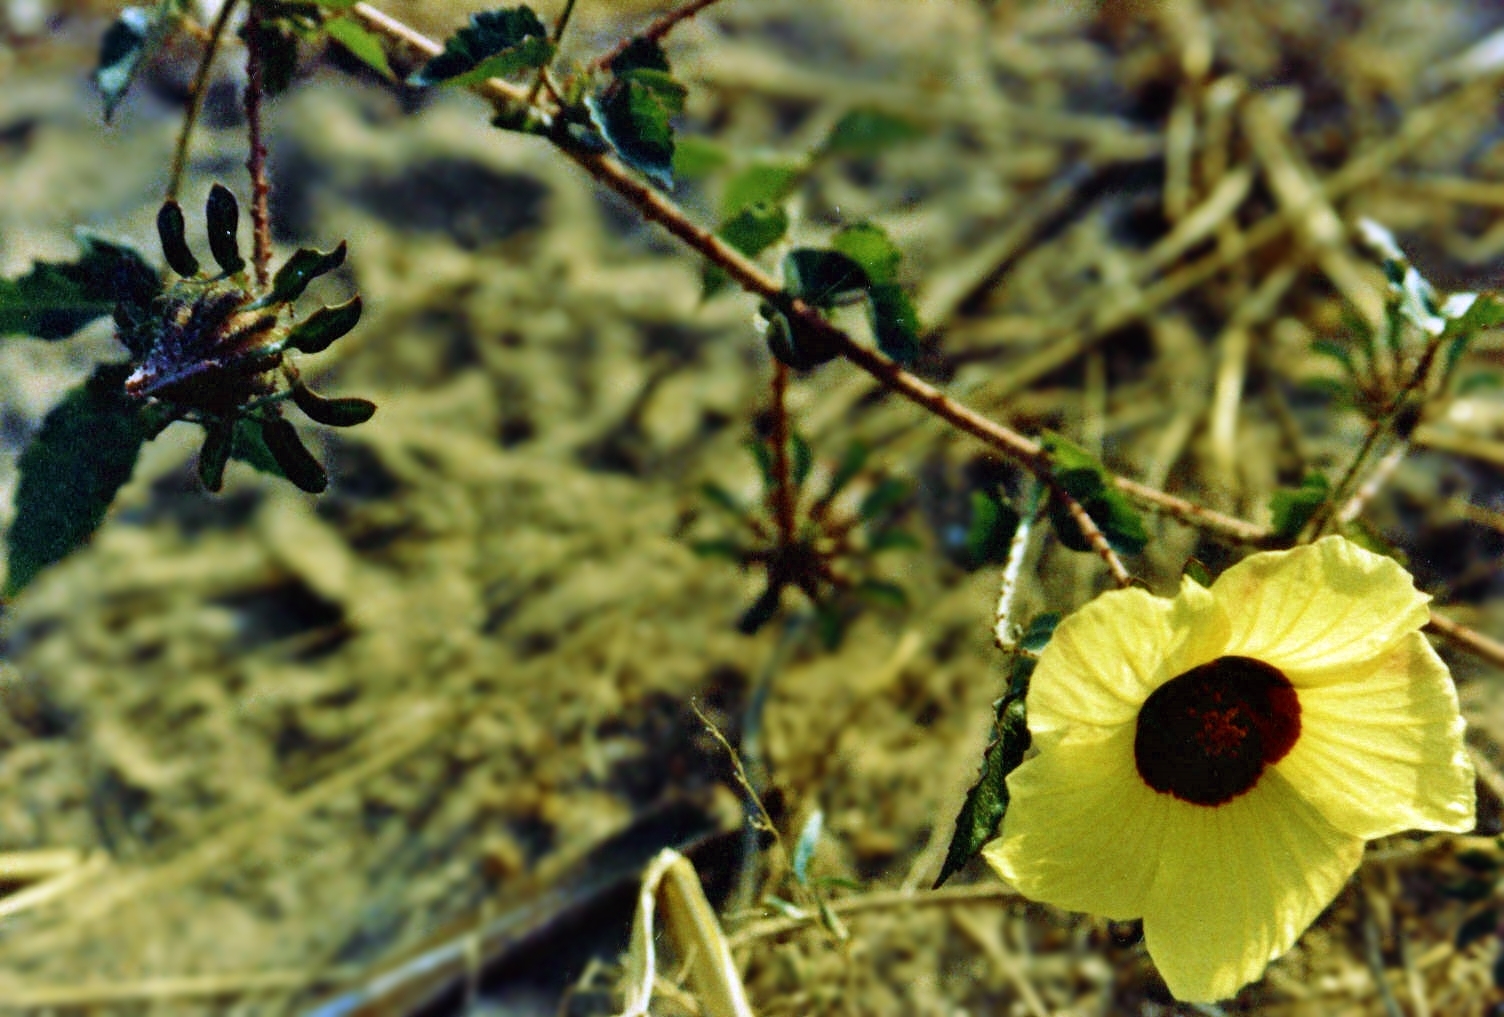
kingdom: Plantae
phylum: Tracheophyta
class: Magnoliopsida
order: Malvales
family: Malvaceae
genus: Hibiscus
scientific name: Hibiscus surattensis
